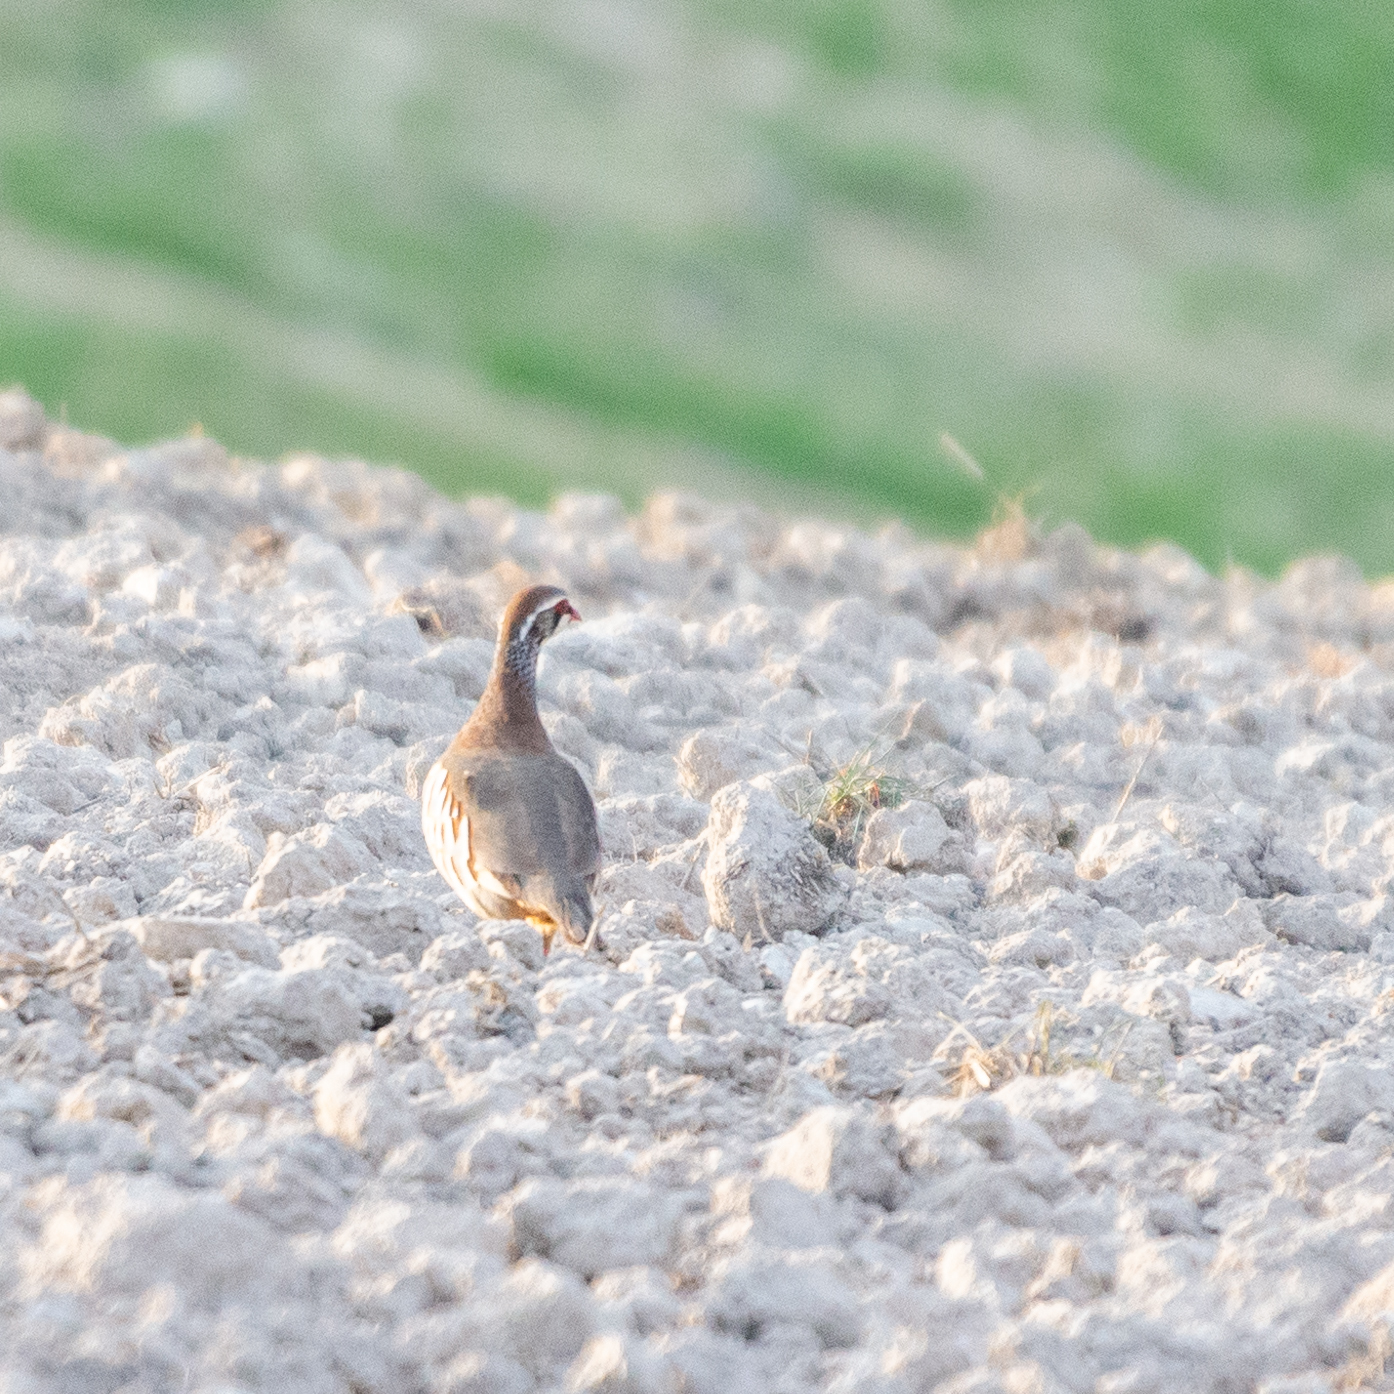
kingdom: Animalia
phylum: Chordata
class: Aves
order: Galliformes
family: Phasianidae
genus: Alectoris
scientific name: Alectoris rufa
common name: Red-legged partridge
